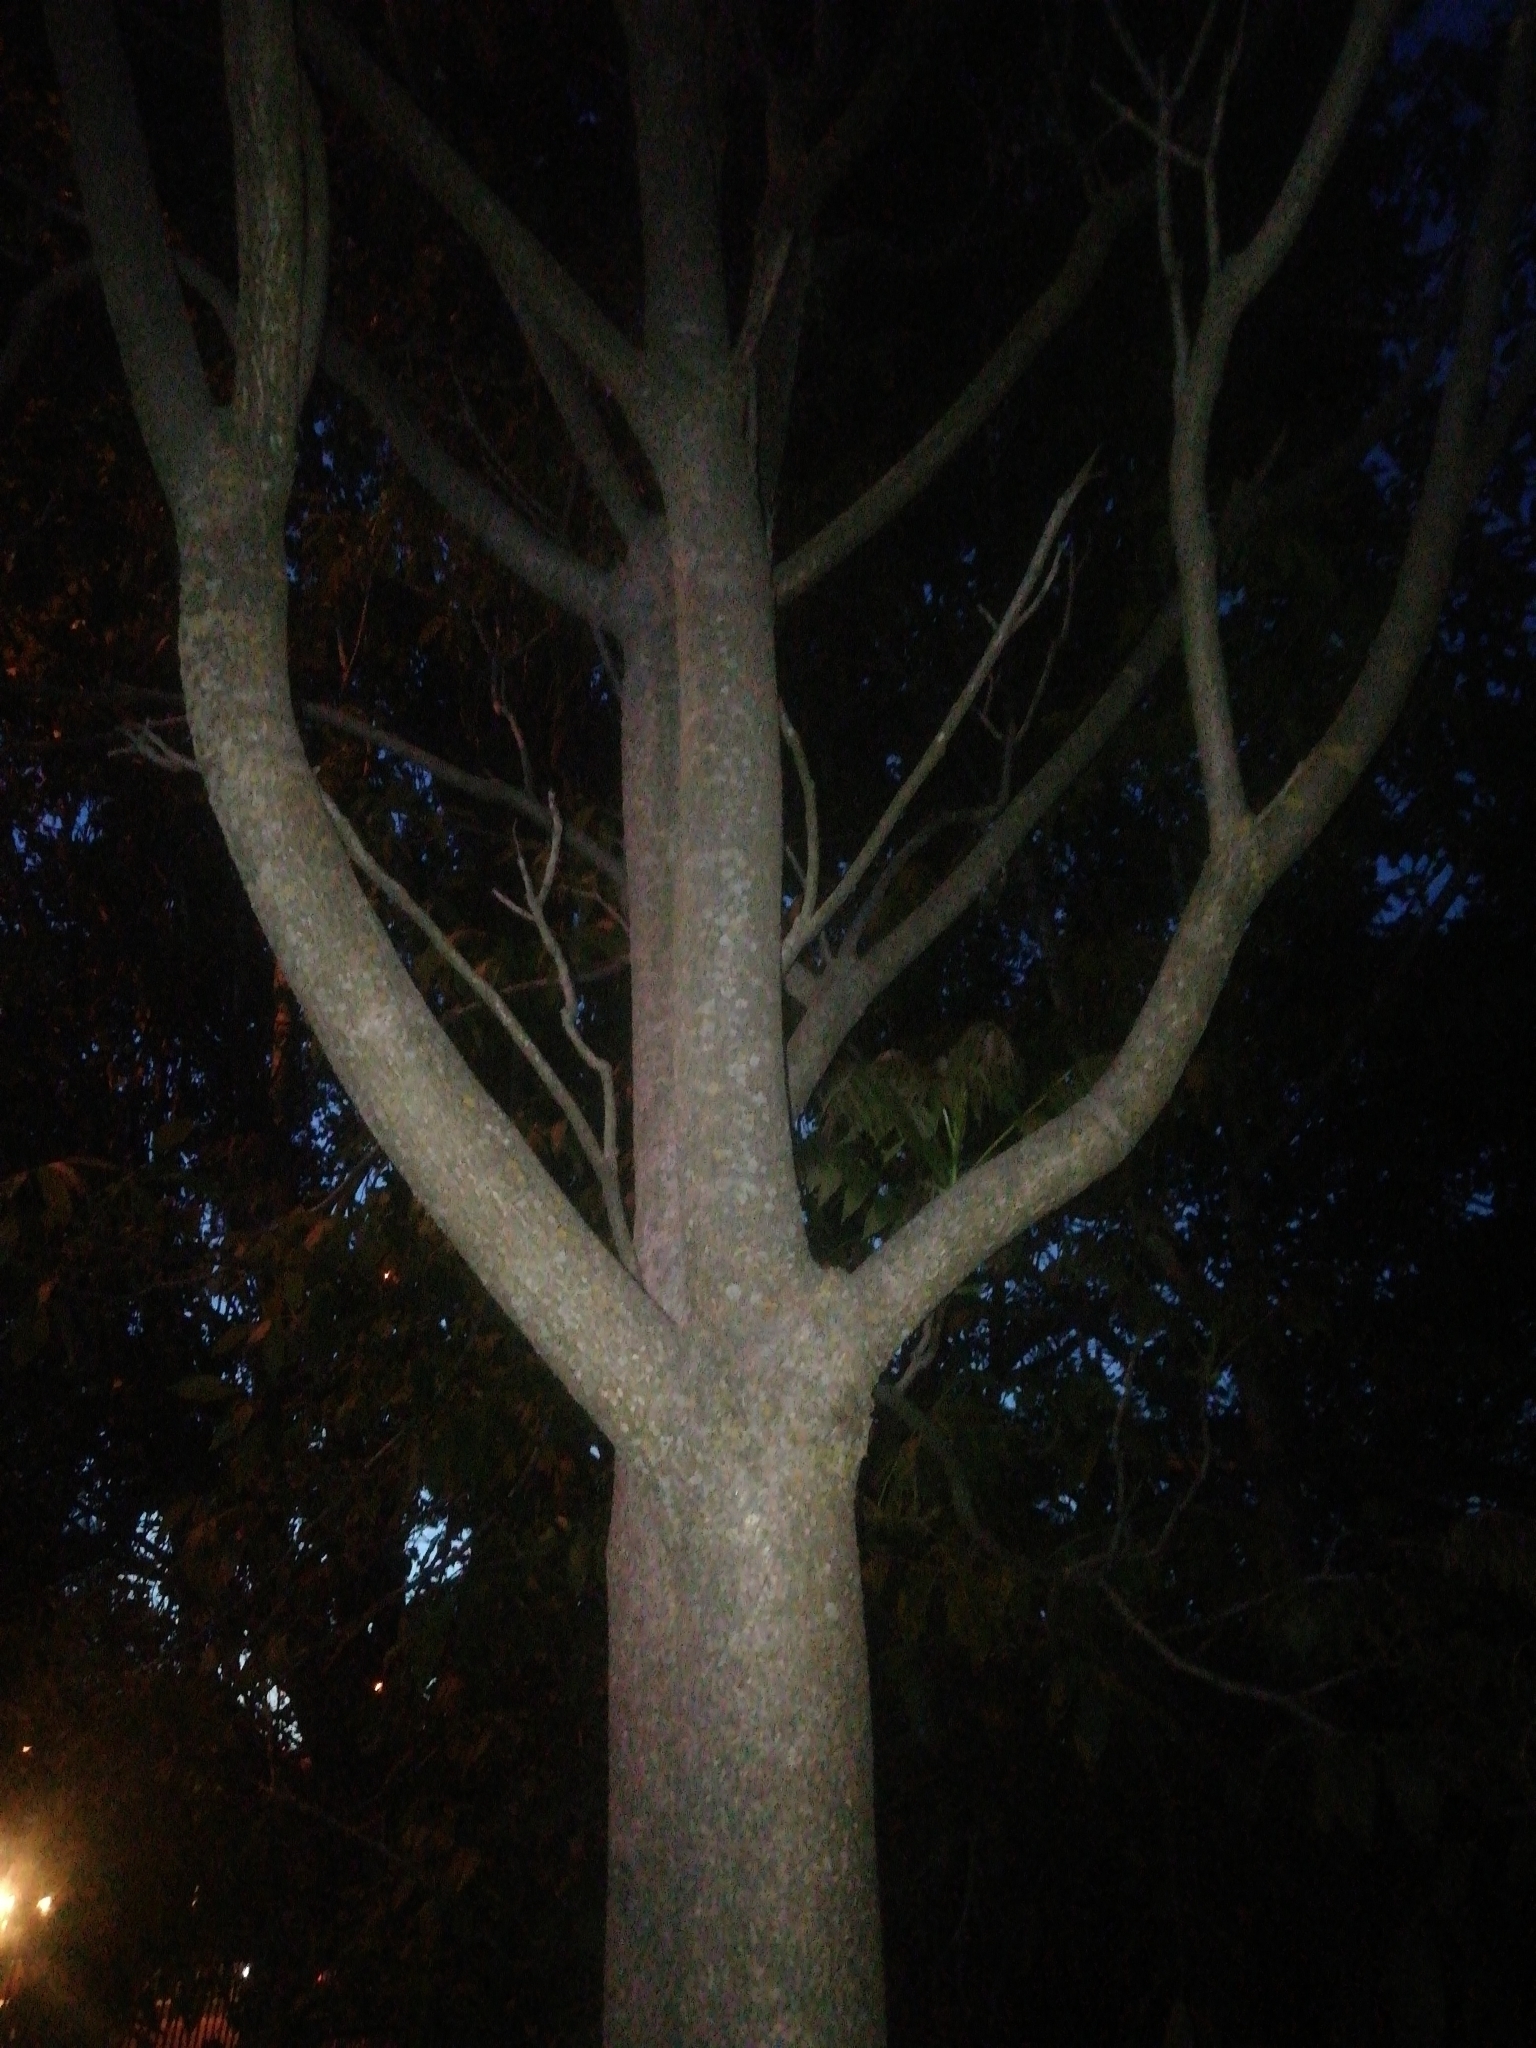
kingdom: Plantae
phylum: Tracheophyta
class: Magnoliopsida
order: Sapindales
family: Simaroubaceae
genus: Ailanthus
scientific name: Ailanthus altissima
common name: Tree-of-heaven
